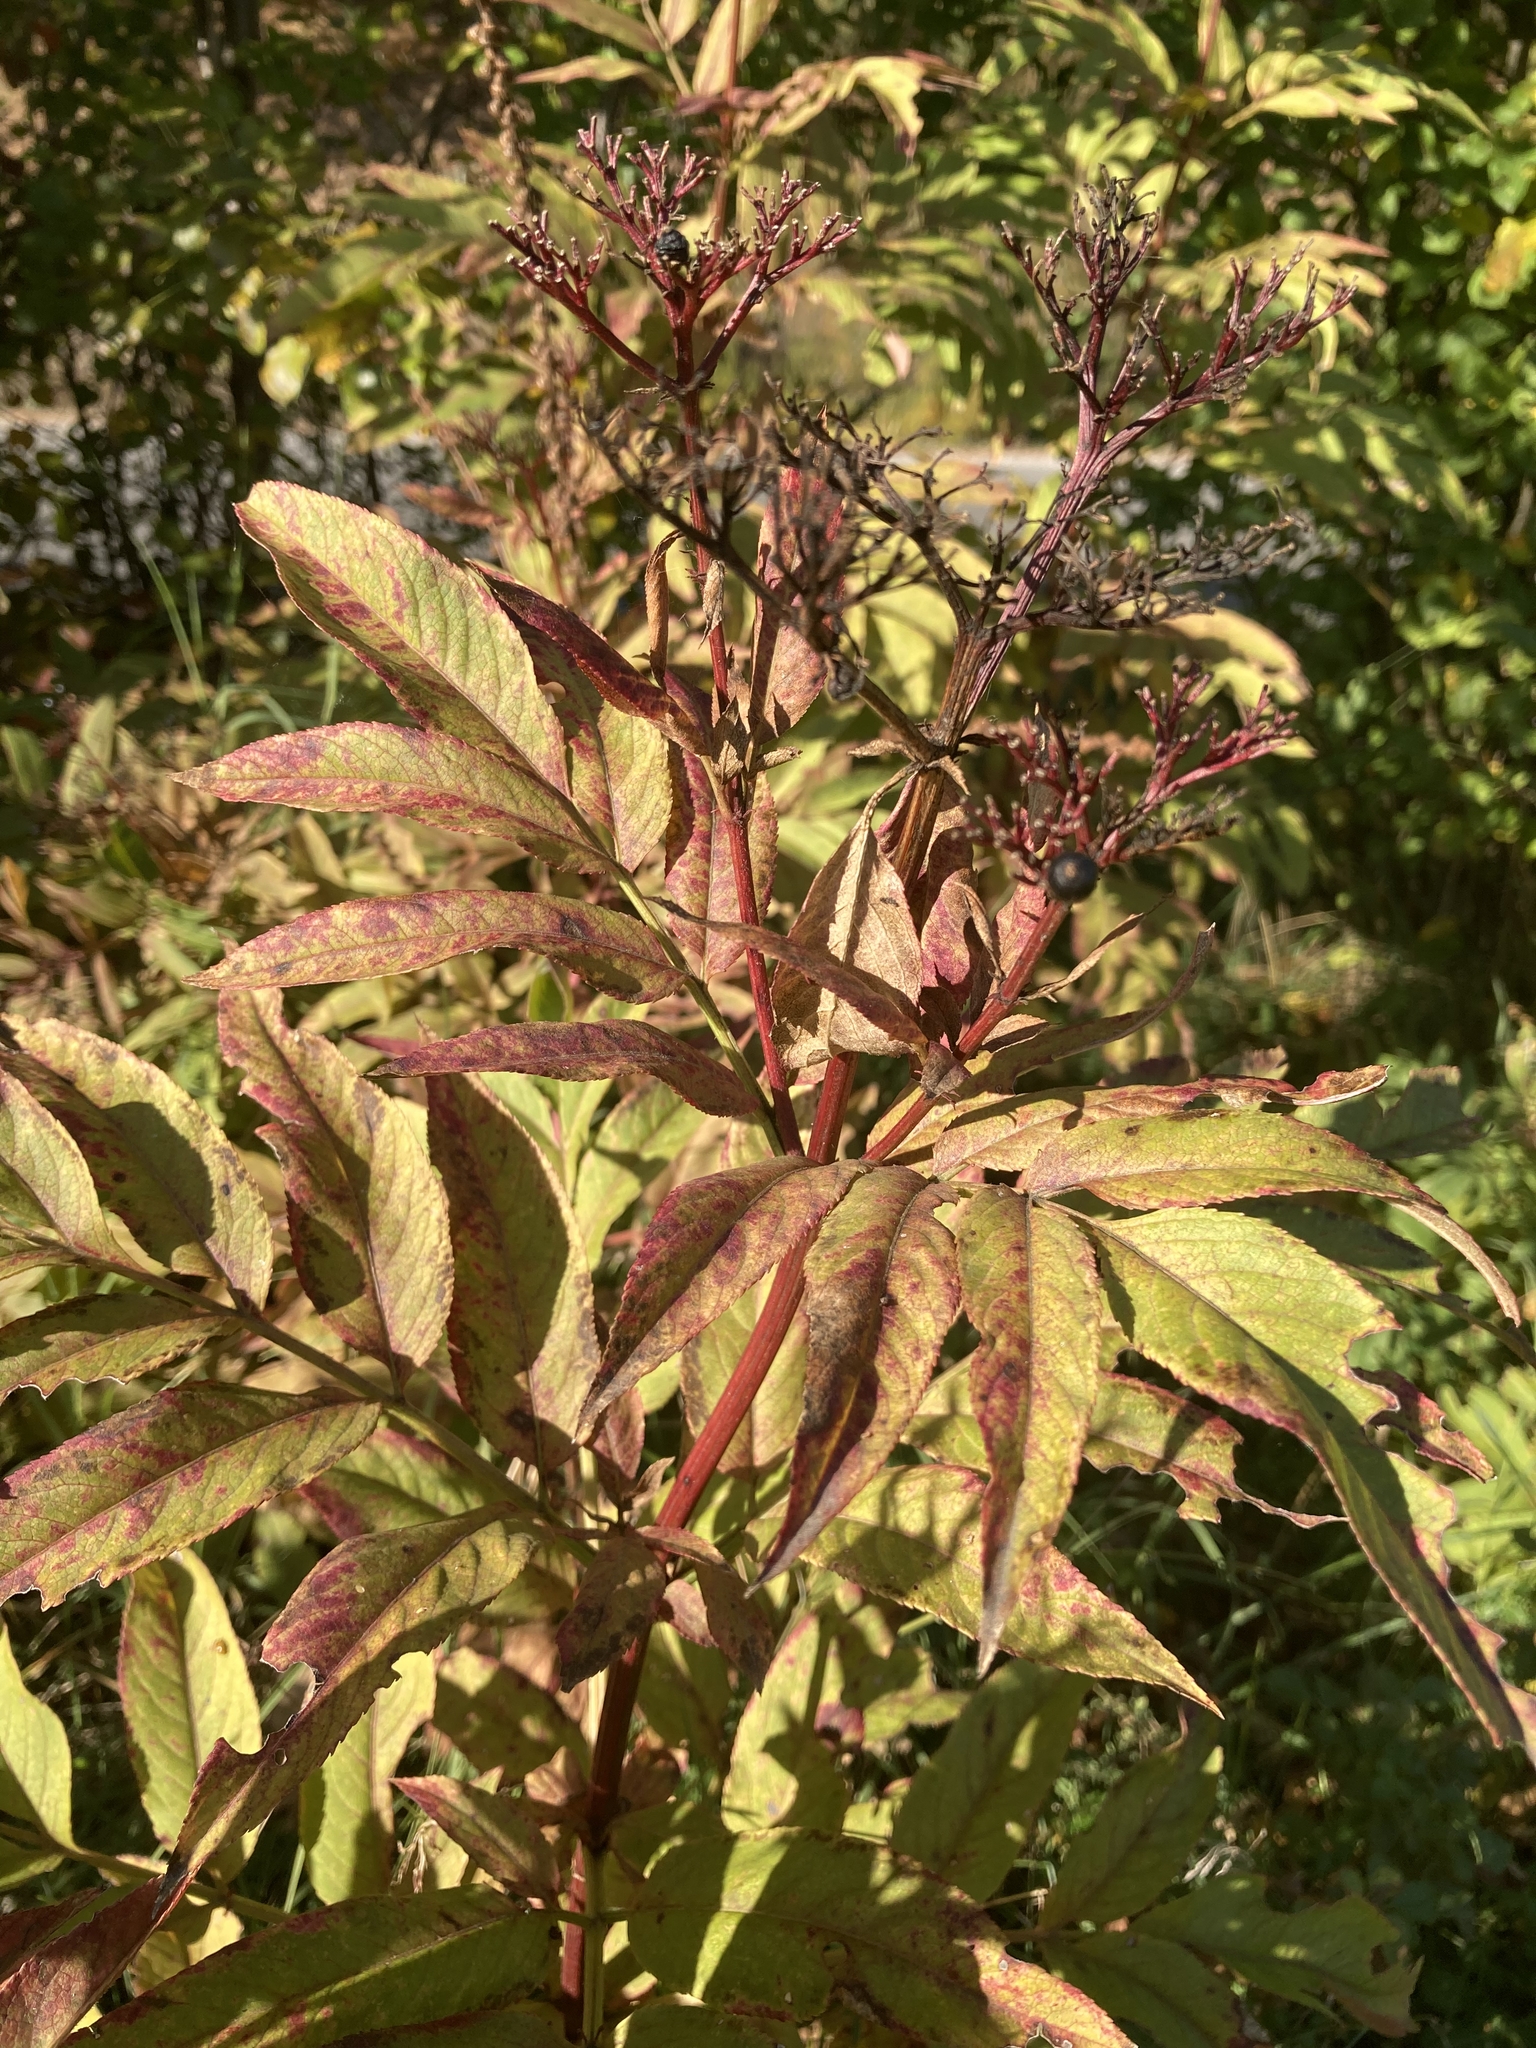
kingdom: Plantae
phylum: Tracheophyta
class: Magnoliopsida
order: Dipsacales
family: Viburnaceae
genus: Sambucus
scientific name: Sambucus ebulus
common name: Dwarf elder
